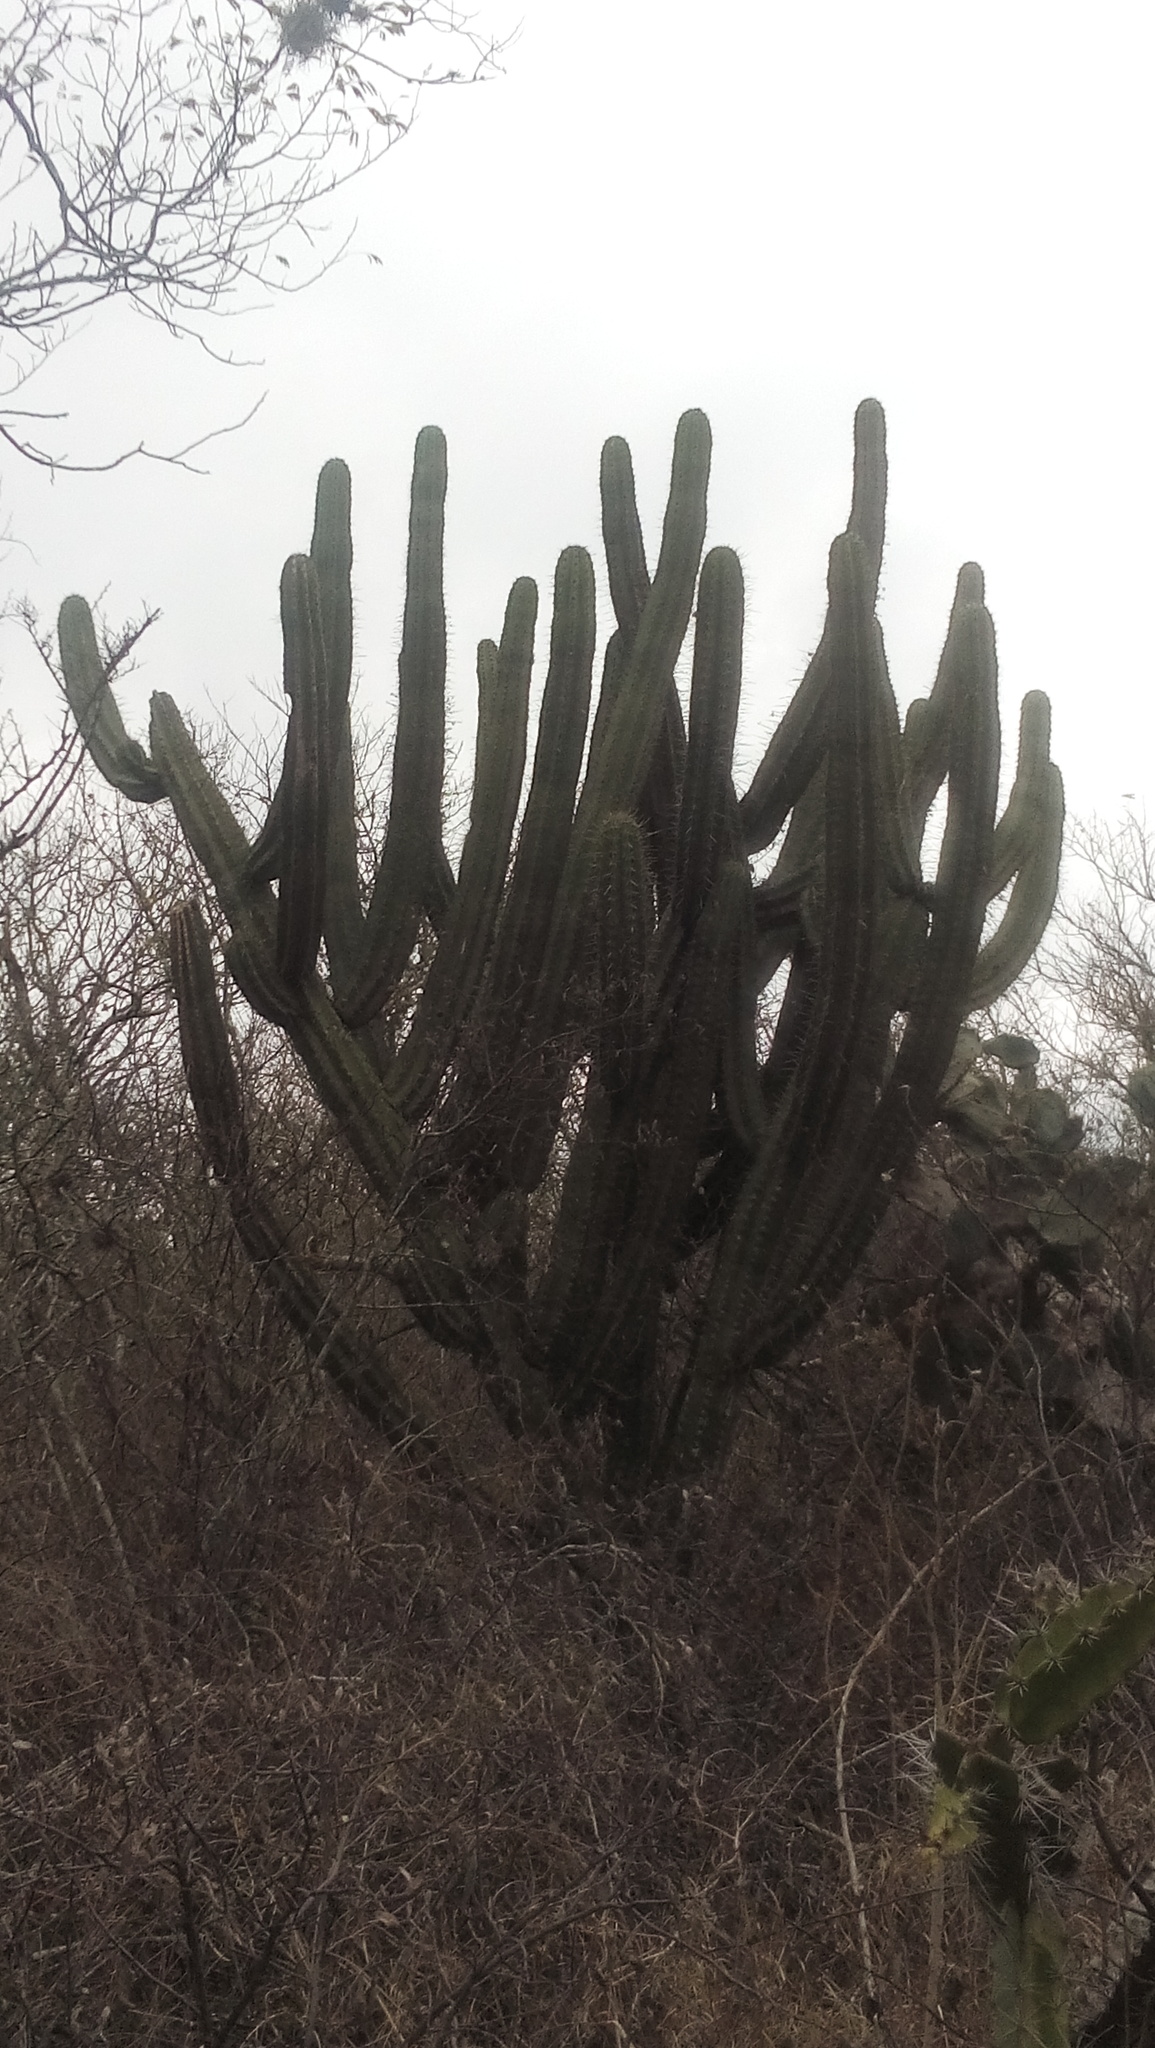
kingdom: Plantae
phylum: Tracheophyta
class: Magnoliopsida
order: Caryophyllales
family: Cactaceae
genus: Stenocereus
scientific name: Stenocereus huastecorum
